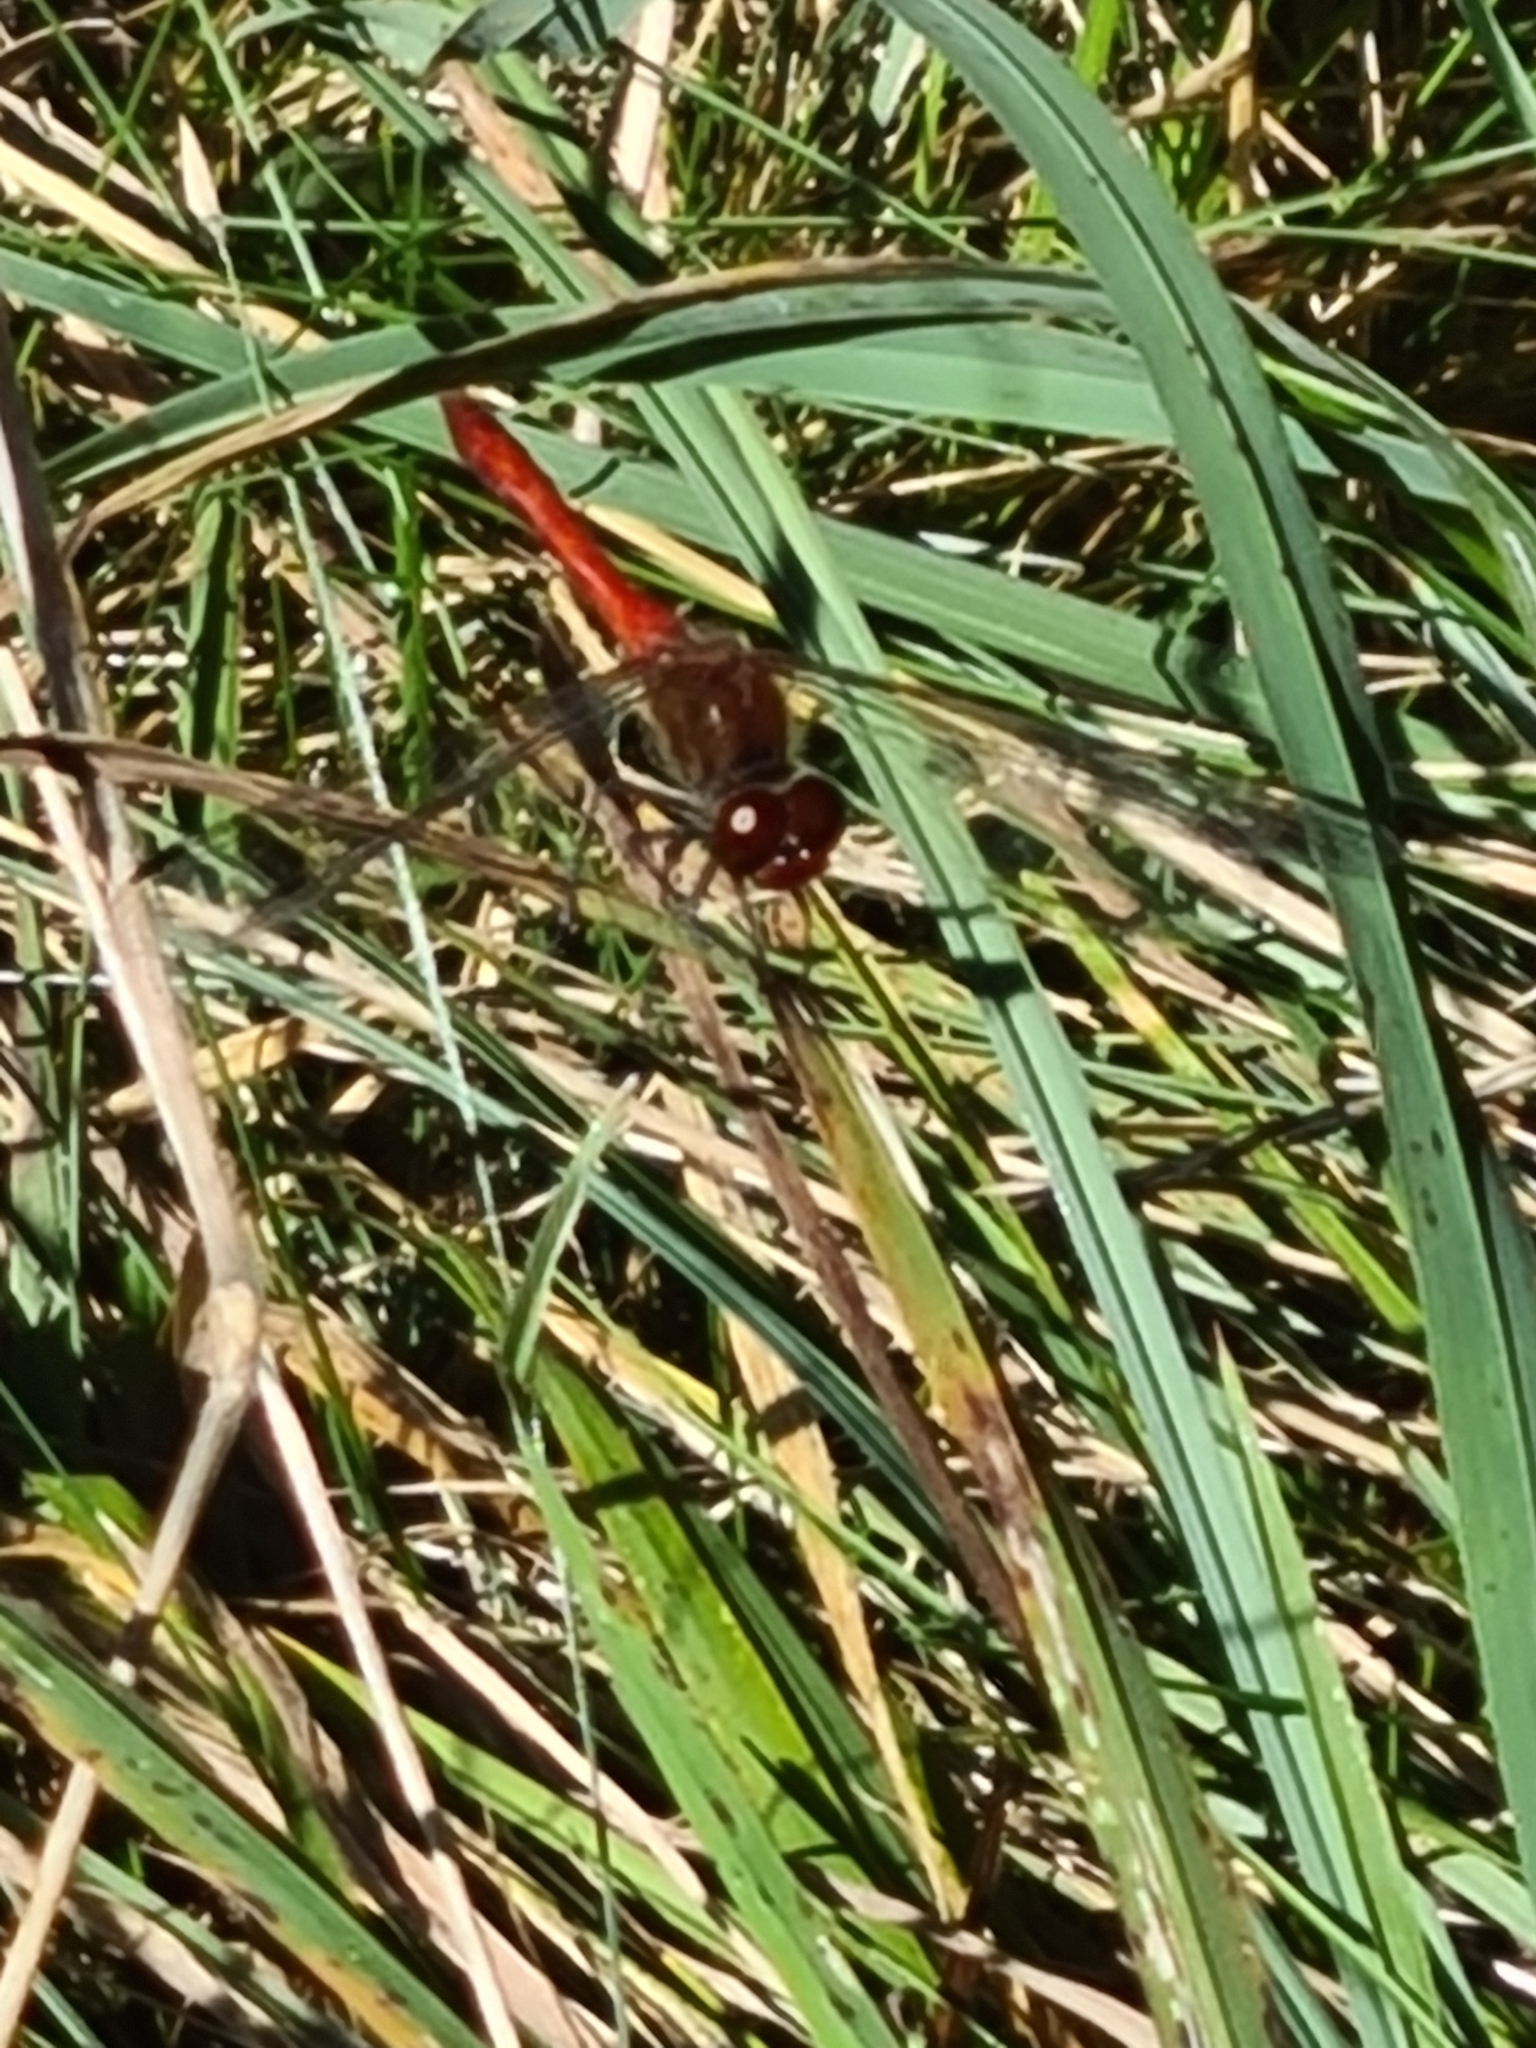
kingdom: Animalia
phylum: Arthropoda
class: Insecta
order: Odonata
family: Libellulidae
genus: Sympetrum
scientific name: Sympetrum sanguineum
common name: Ruddy darter
